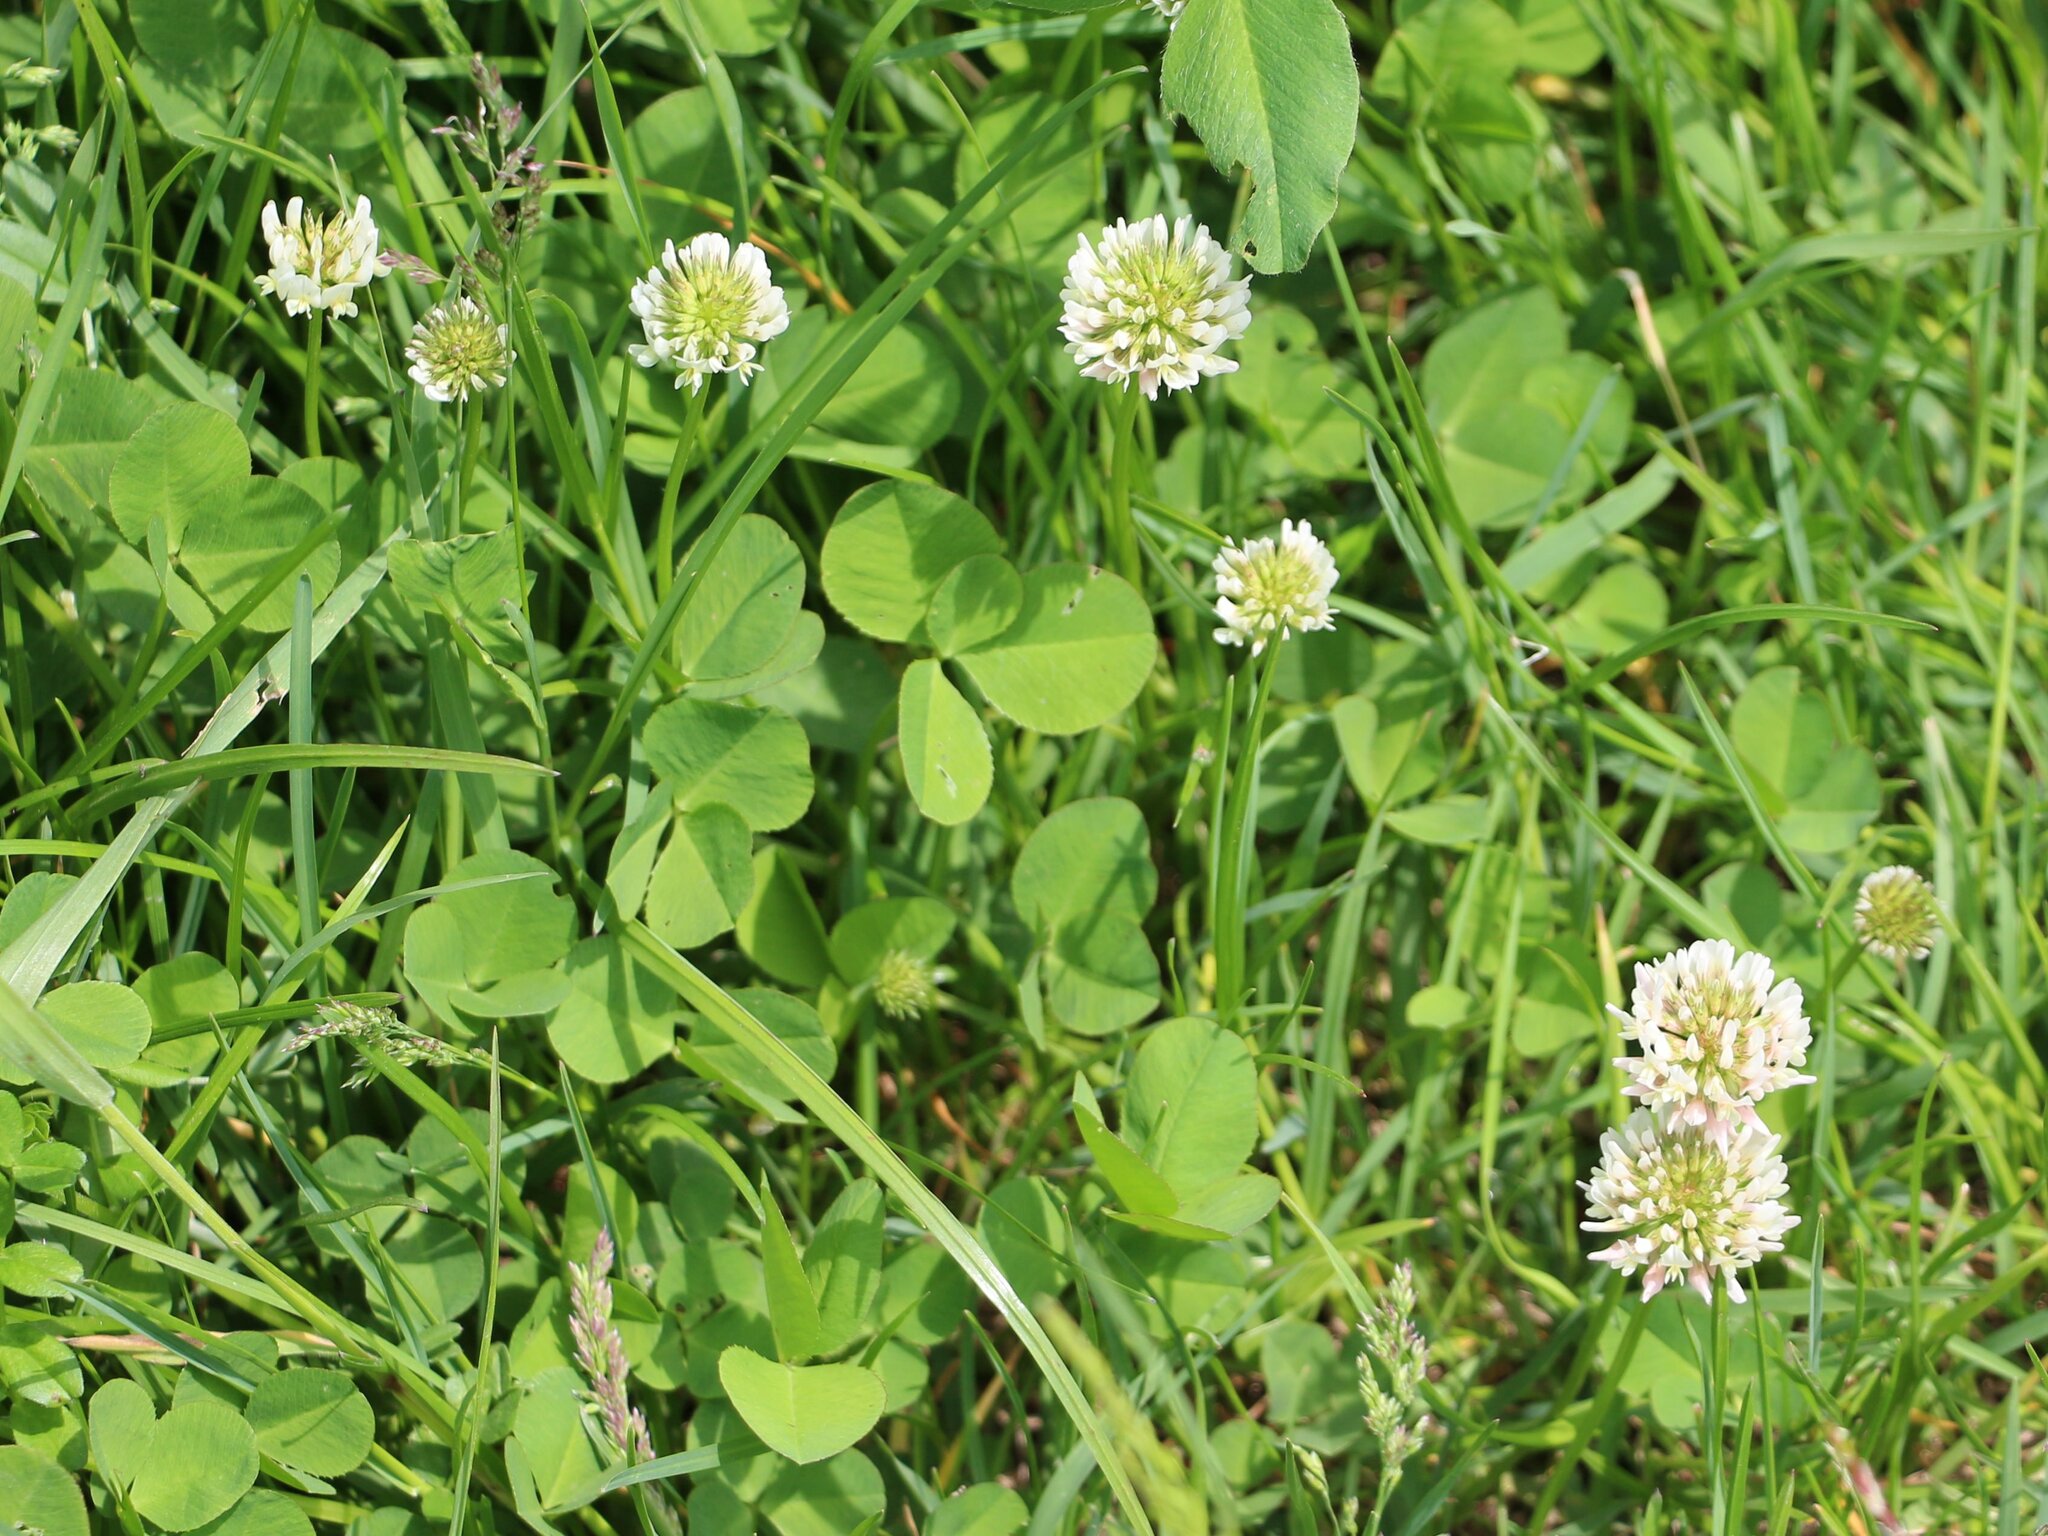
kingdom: Plantae
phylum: Tracheophyta
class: Magnoliopsida
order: Fabales
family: Fabaceae
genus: Trifolium
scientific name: Trifolium repens
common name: White clover
